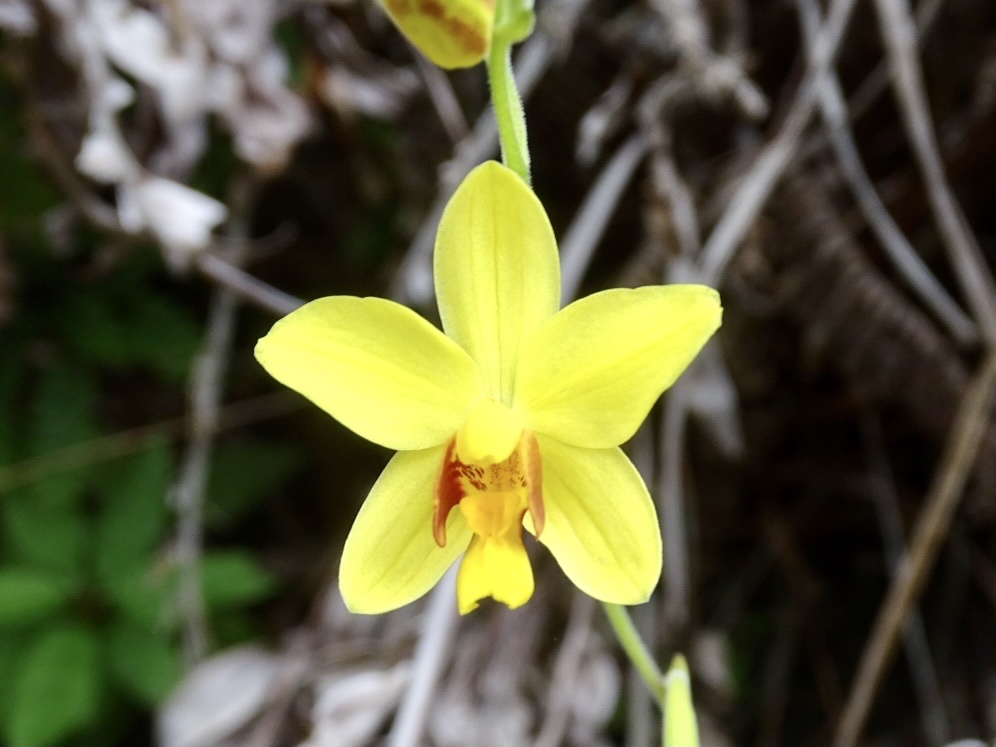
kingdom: Plantae
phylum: Tracheophyta
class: Liliopsida
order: Asparagales
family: Orchidaceae
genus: Spathoglottis
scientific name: Spathoglottis pubescens
